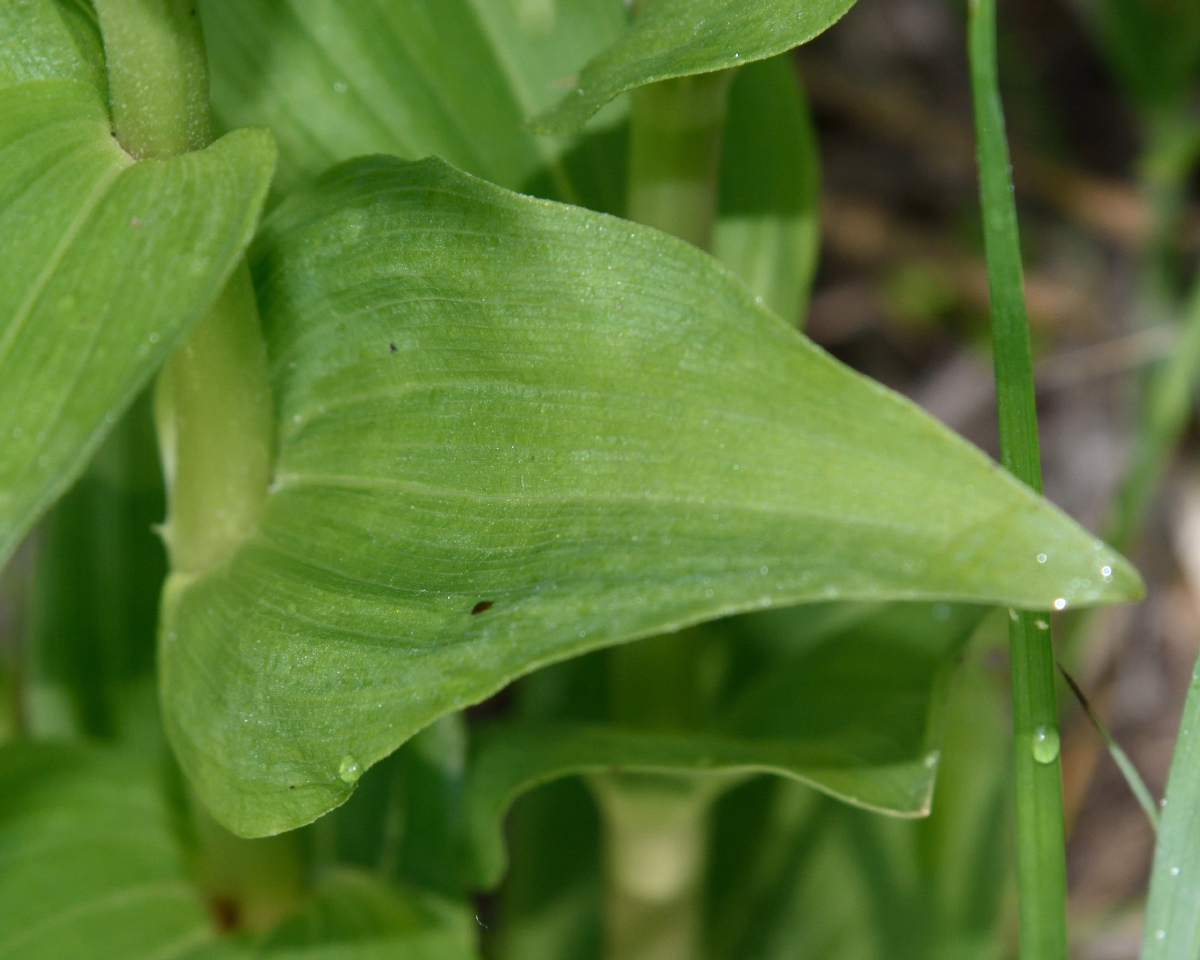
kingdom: Plantae
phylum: Tracheophyta
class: Liliopsida
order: Asparagales
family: Orchidaceae
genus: Epipactis
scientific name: Epipactis helleborine
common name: Broad-leaved helleborine
